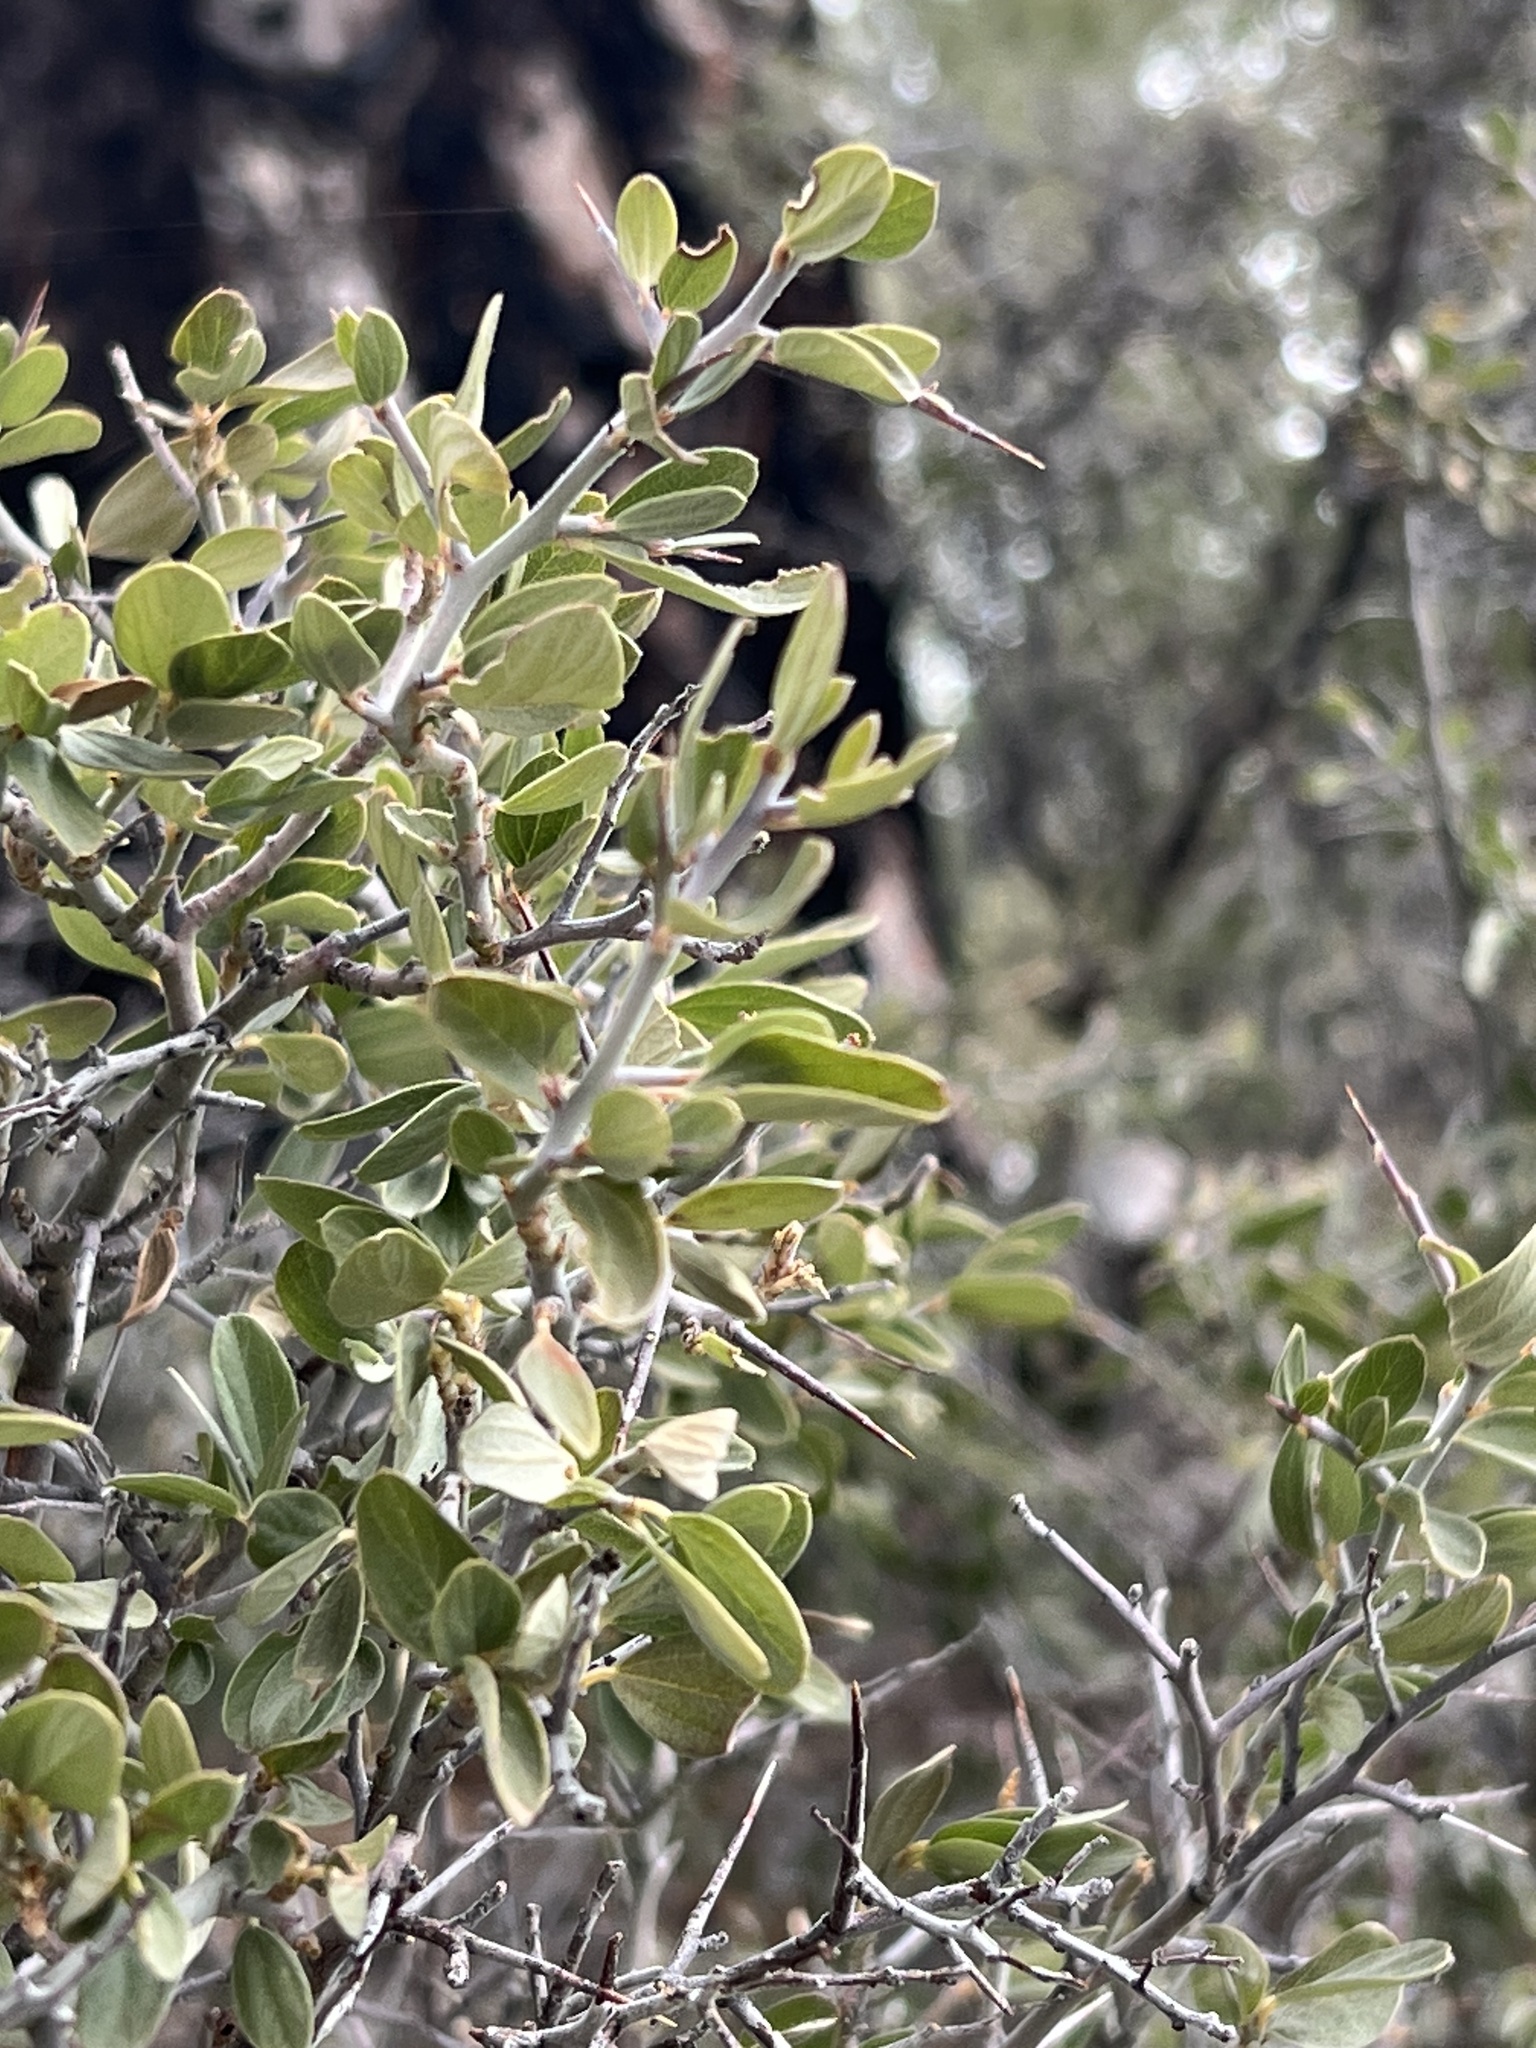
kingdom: Plantae
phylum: Tracheophyta
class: Magnoliopsida
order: Rosales
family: Rhamnaceae
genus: Ceanothus
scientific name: Ceanothus fendleri
